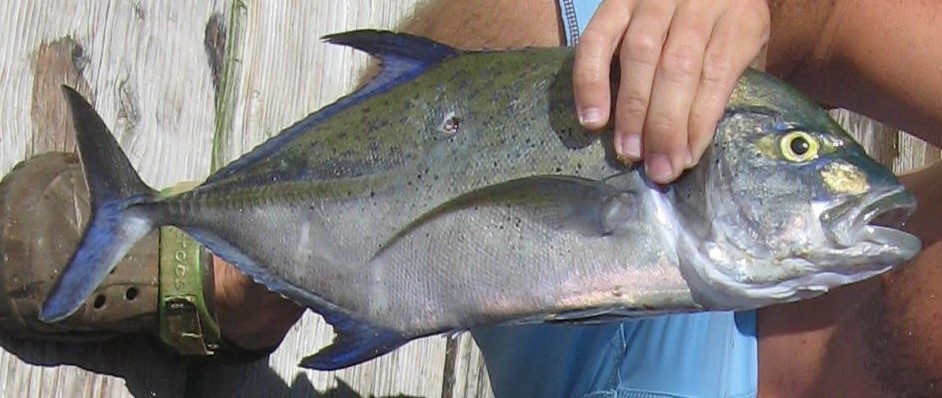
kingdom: Animalia
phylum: Chordata
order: Perciformes
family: Carangidae
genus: Caranx
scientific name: Caranx melampygus
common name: Bluefin trevally
